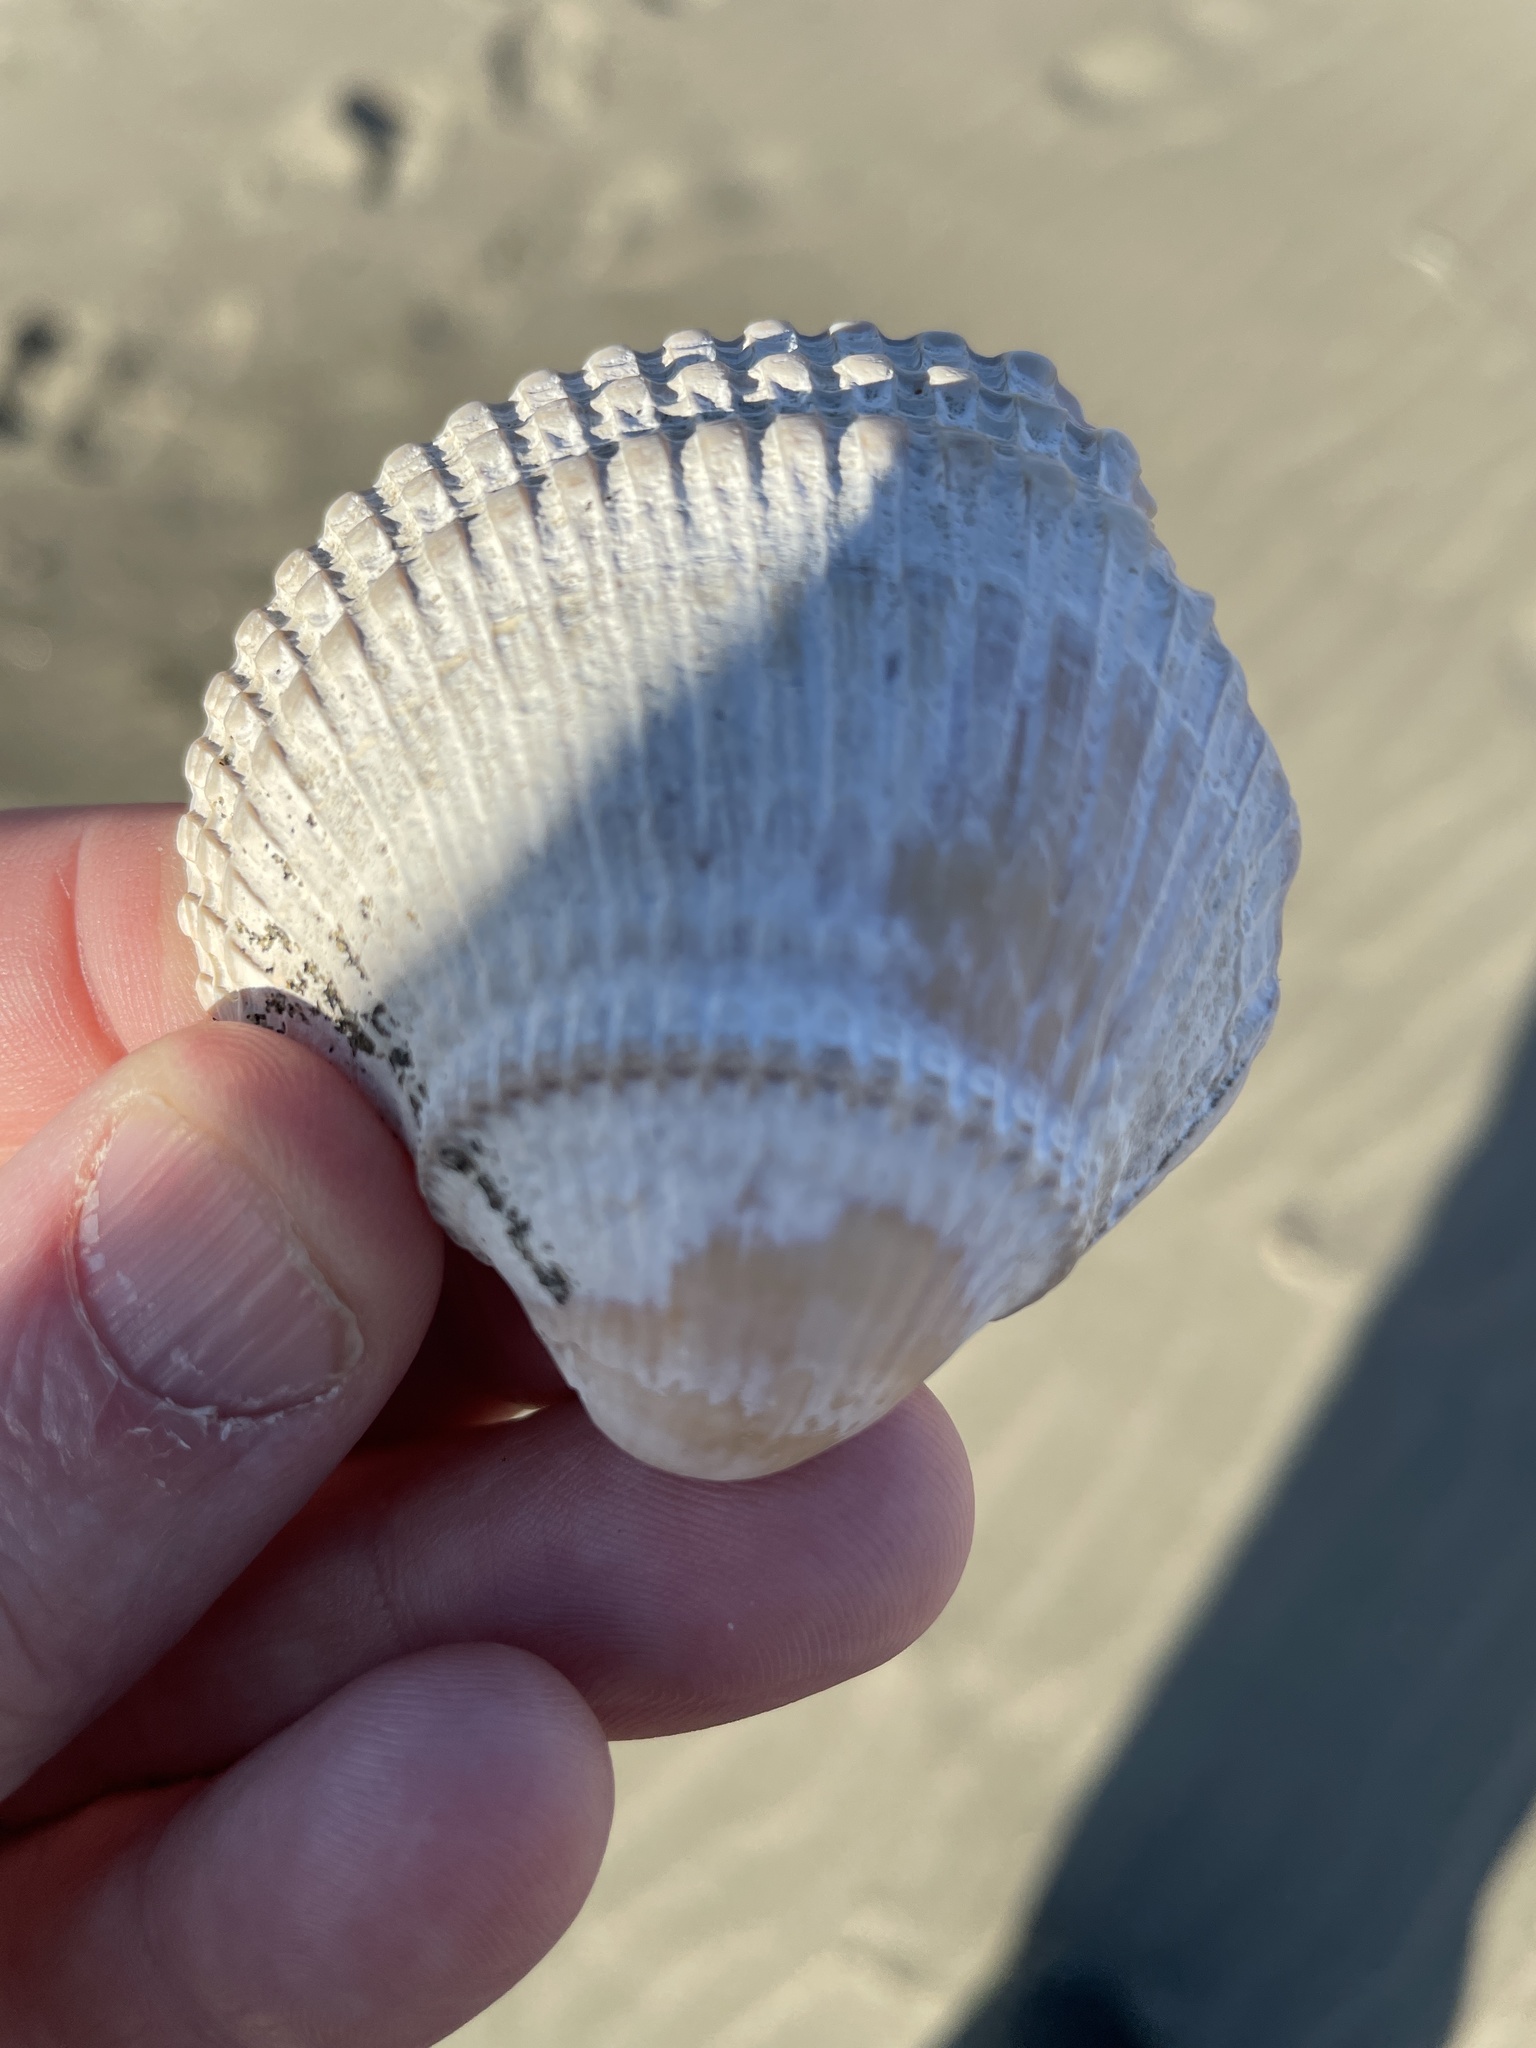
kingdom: Animalia
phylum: Mollusca
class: Bivalvia
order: Cardiida
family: Cardiidae
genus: Clinocardium
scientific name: Clinocardium nuttallii
